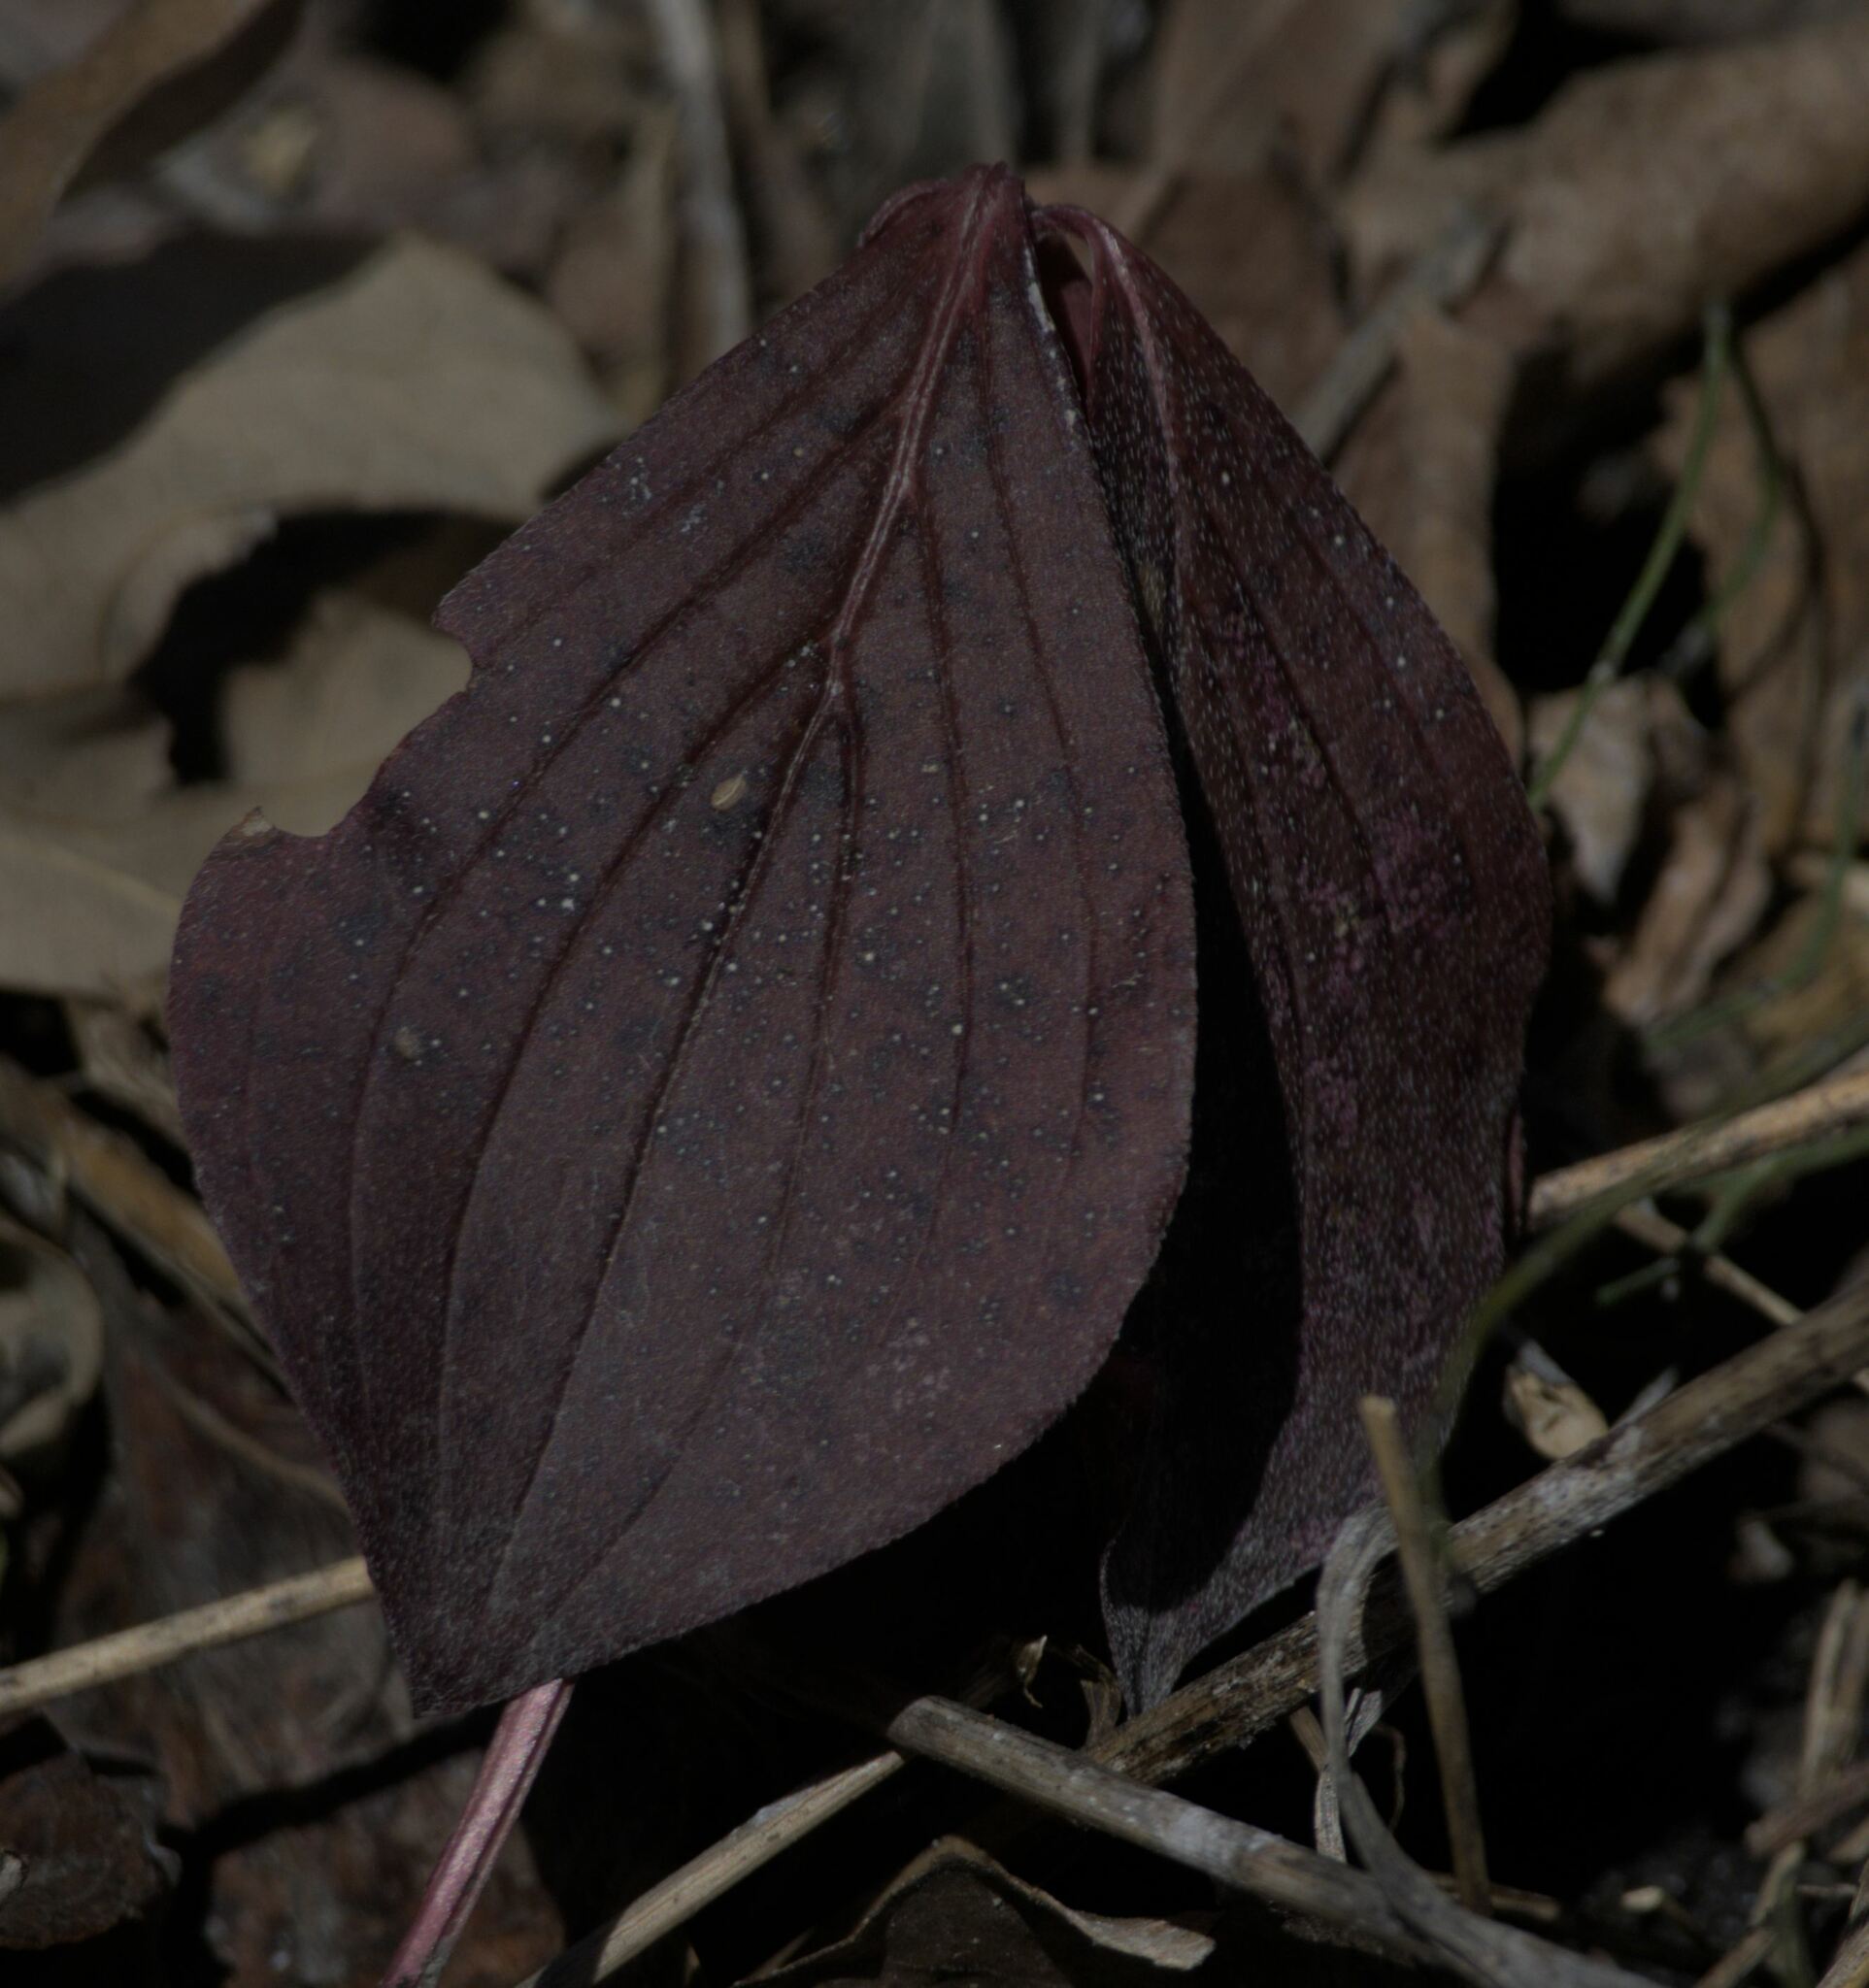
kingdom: Plantae
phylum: Tracheophyta
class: Magnoliopsida
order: Cornales
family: Cornaceae
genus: Cornus
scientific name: Cornus canadensis
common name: Creeping dogwood
